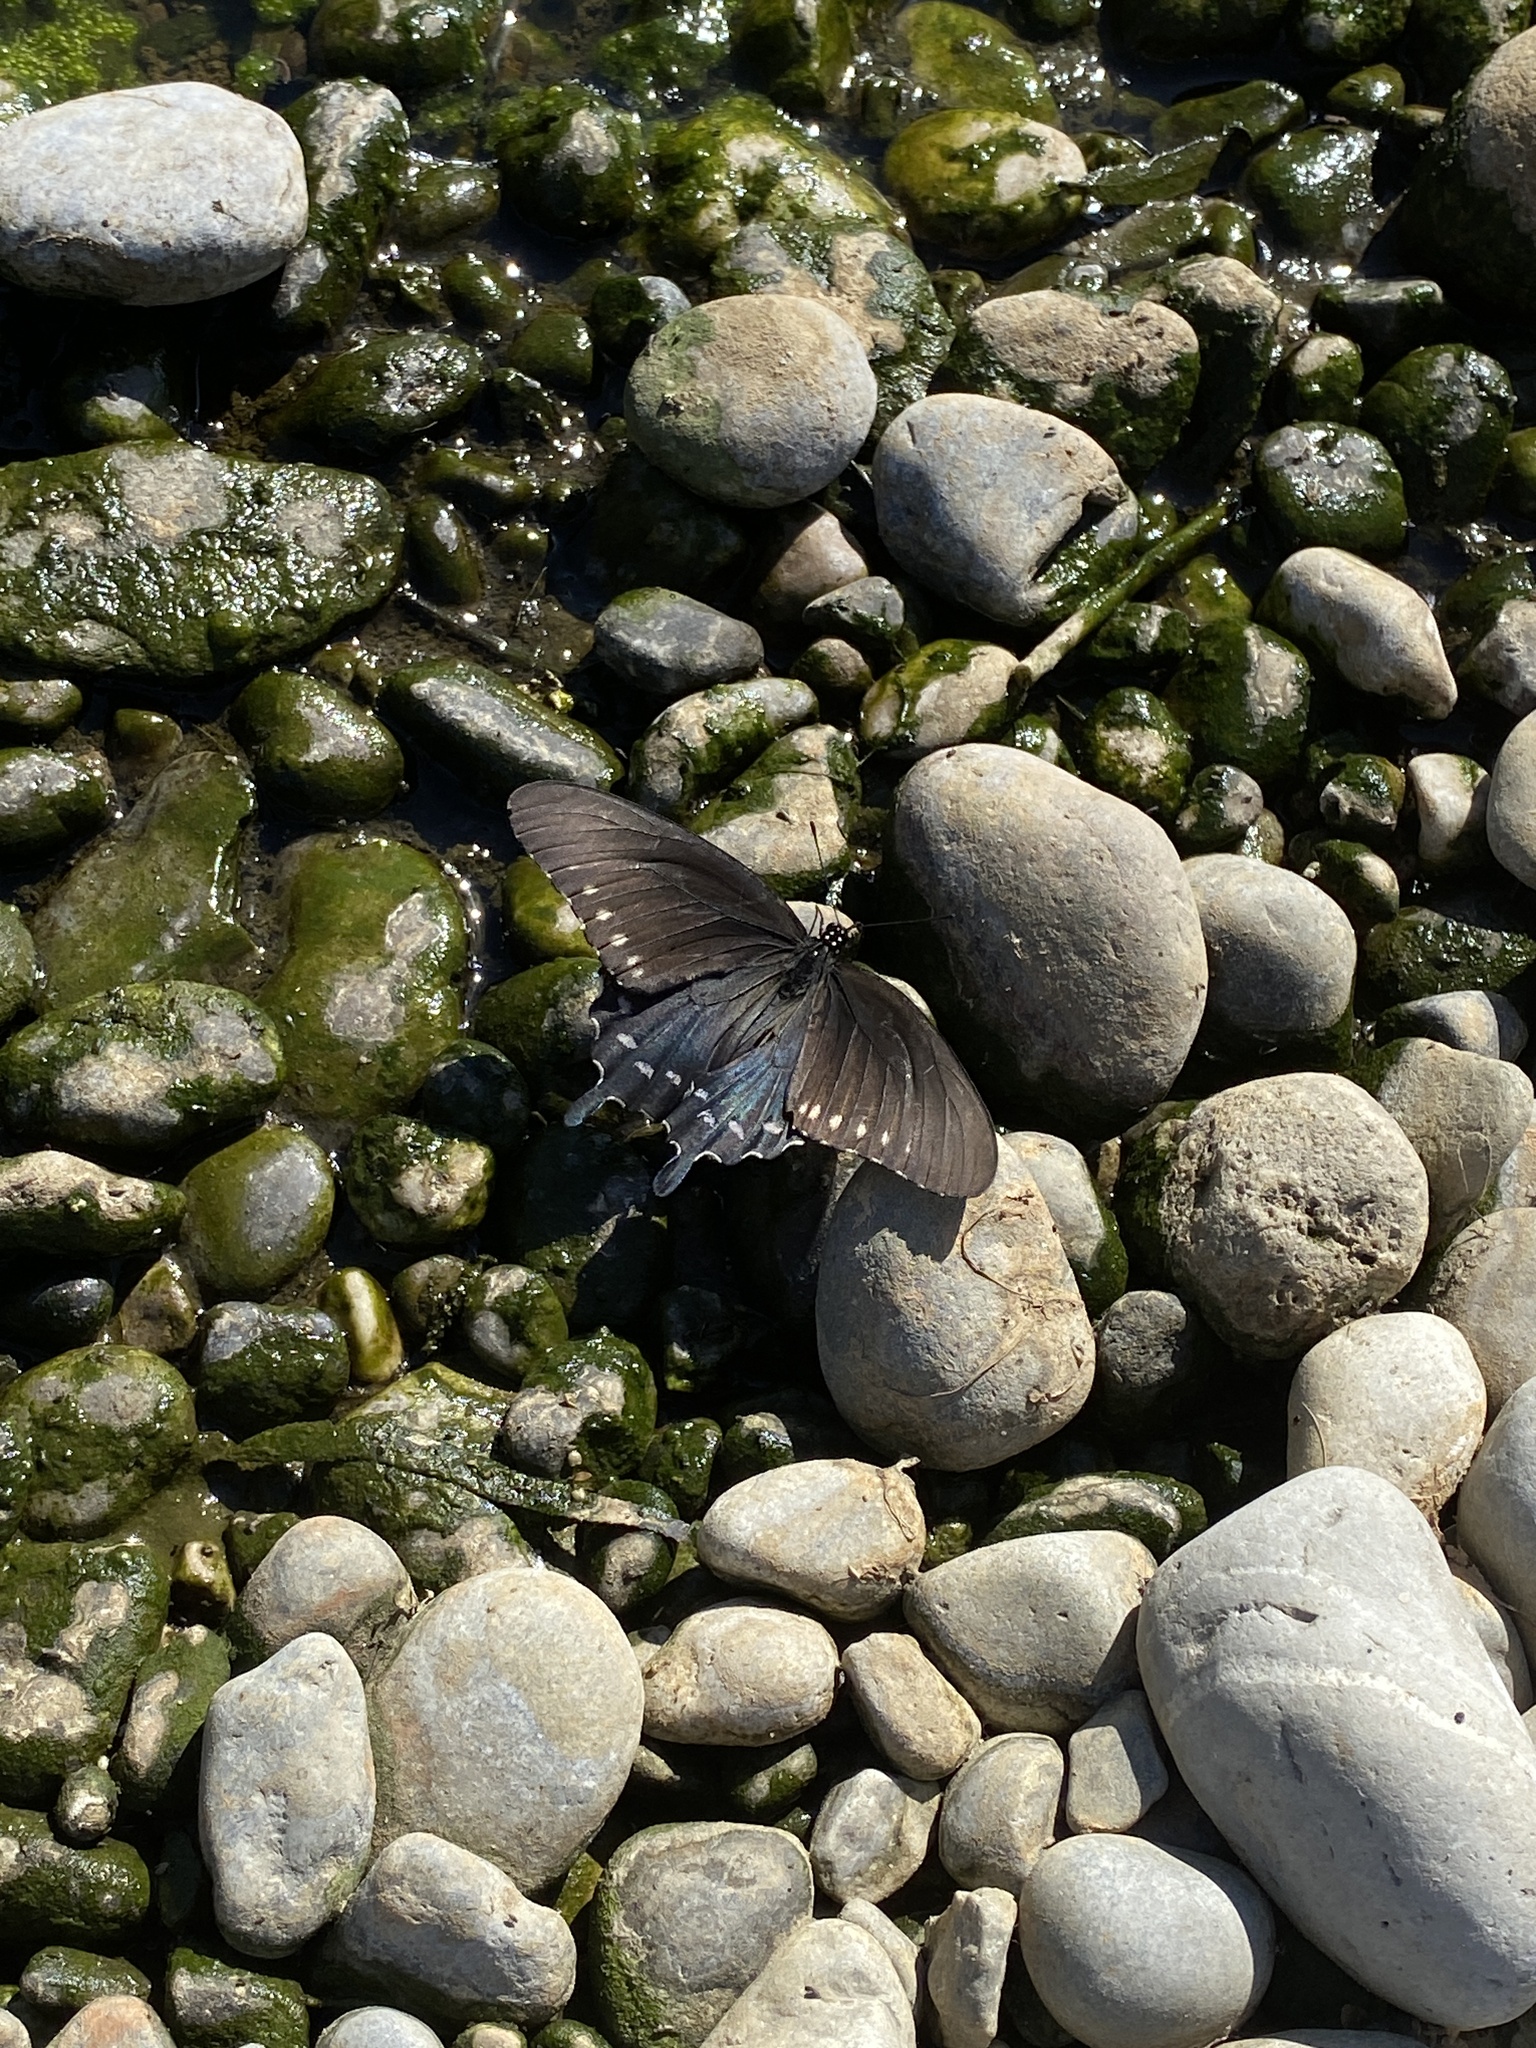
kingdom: Animalia
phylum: Arthropoda
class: Insecta
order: Lepidoptera
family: Papilionidae
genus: Battus
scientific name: Battus philenor
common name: Pipevine swallowtail
